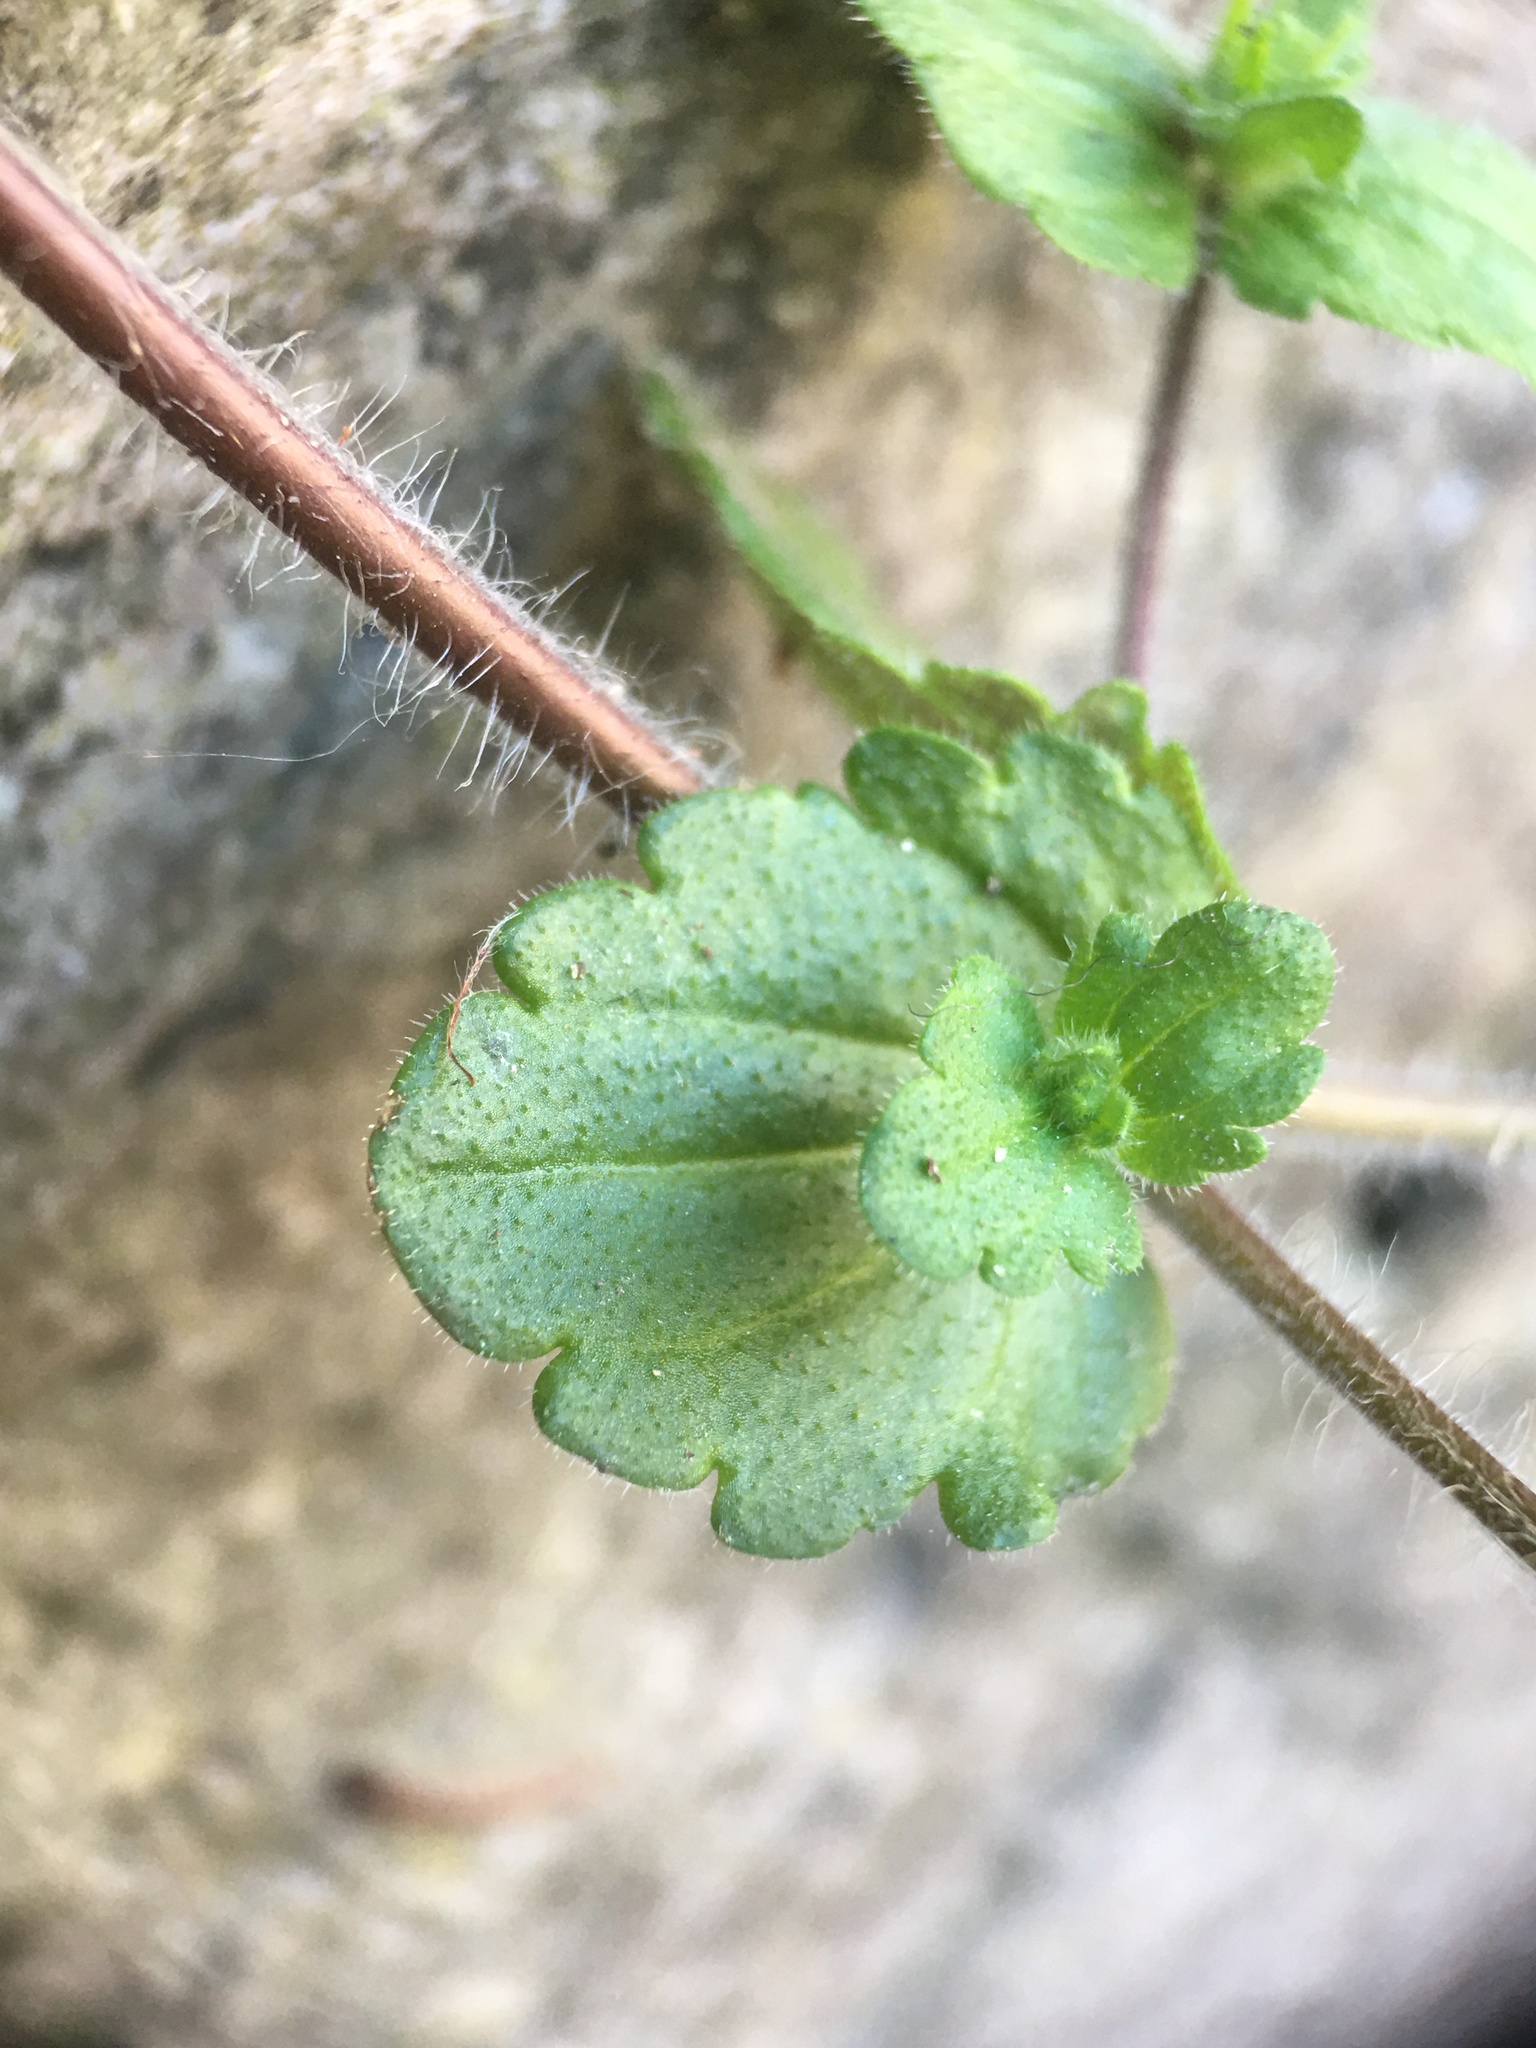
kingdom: Plantae
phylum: Tracheophyta
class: Magnoliopsida
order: Lamiales
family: Plantaginaceae
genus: Veronica
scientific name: Veronica arvensis
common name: Corn speedwell
